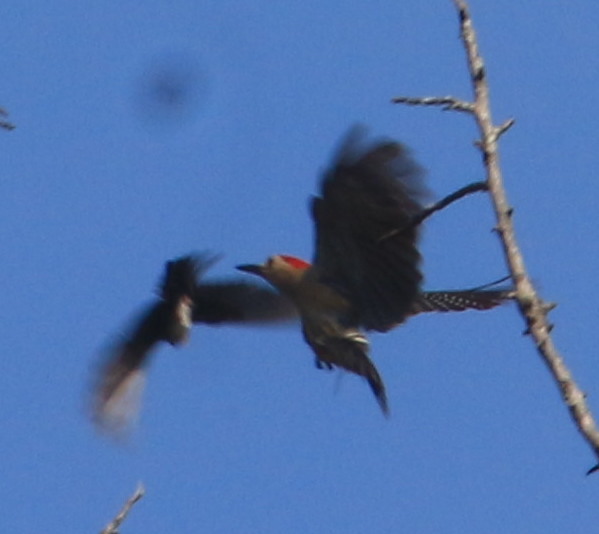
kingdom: Animalia
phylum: Chordata
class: Aves
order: Piciformes
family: Picidae
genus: Melanerpes
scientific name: Melanerpes aurifrons
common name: Golden-fronted woodpecker
